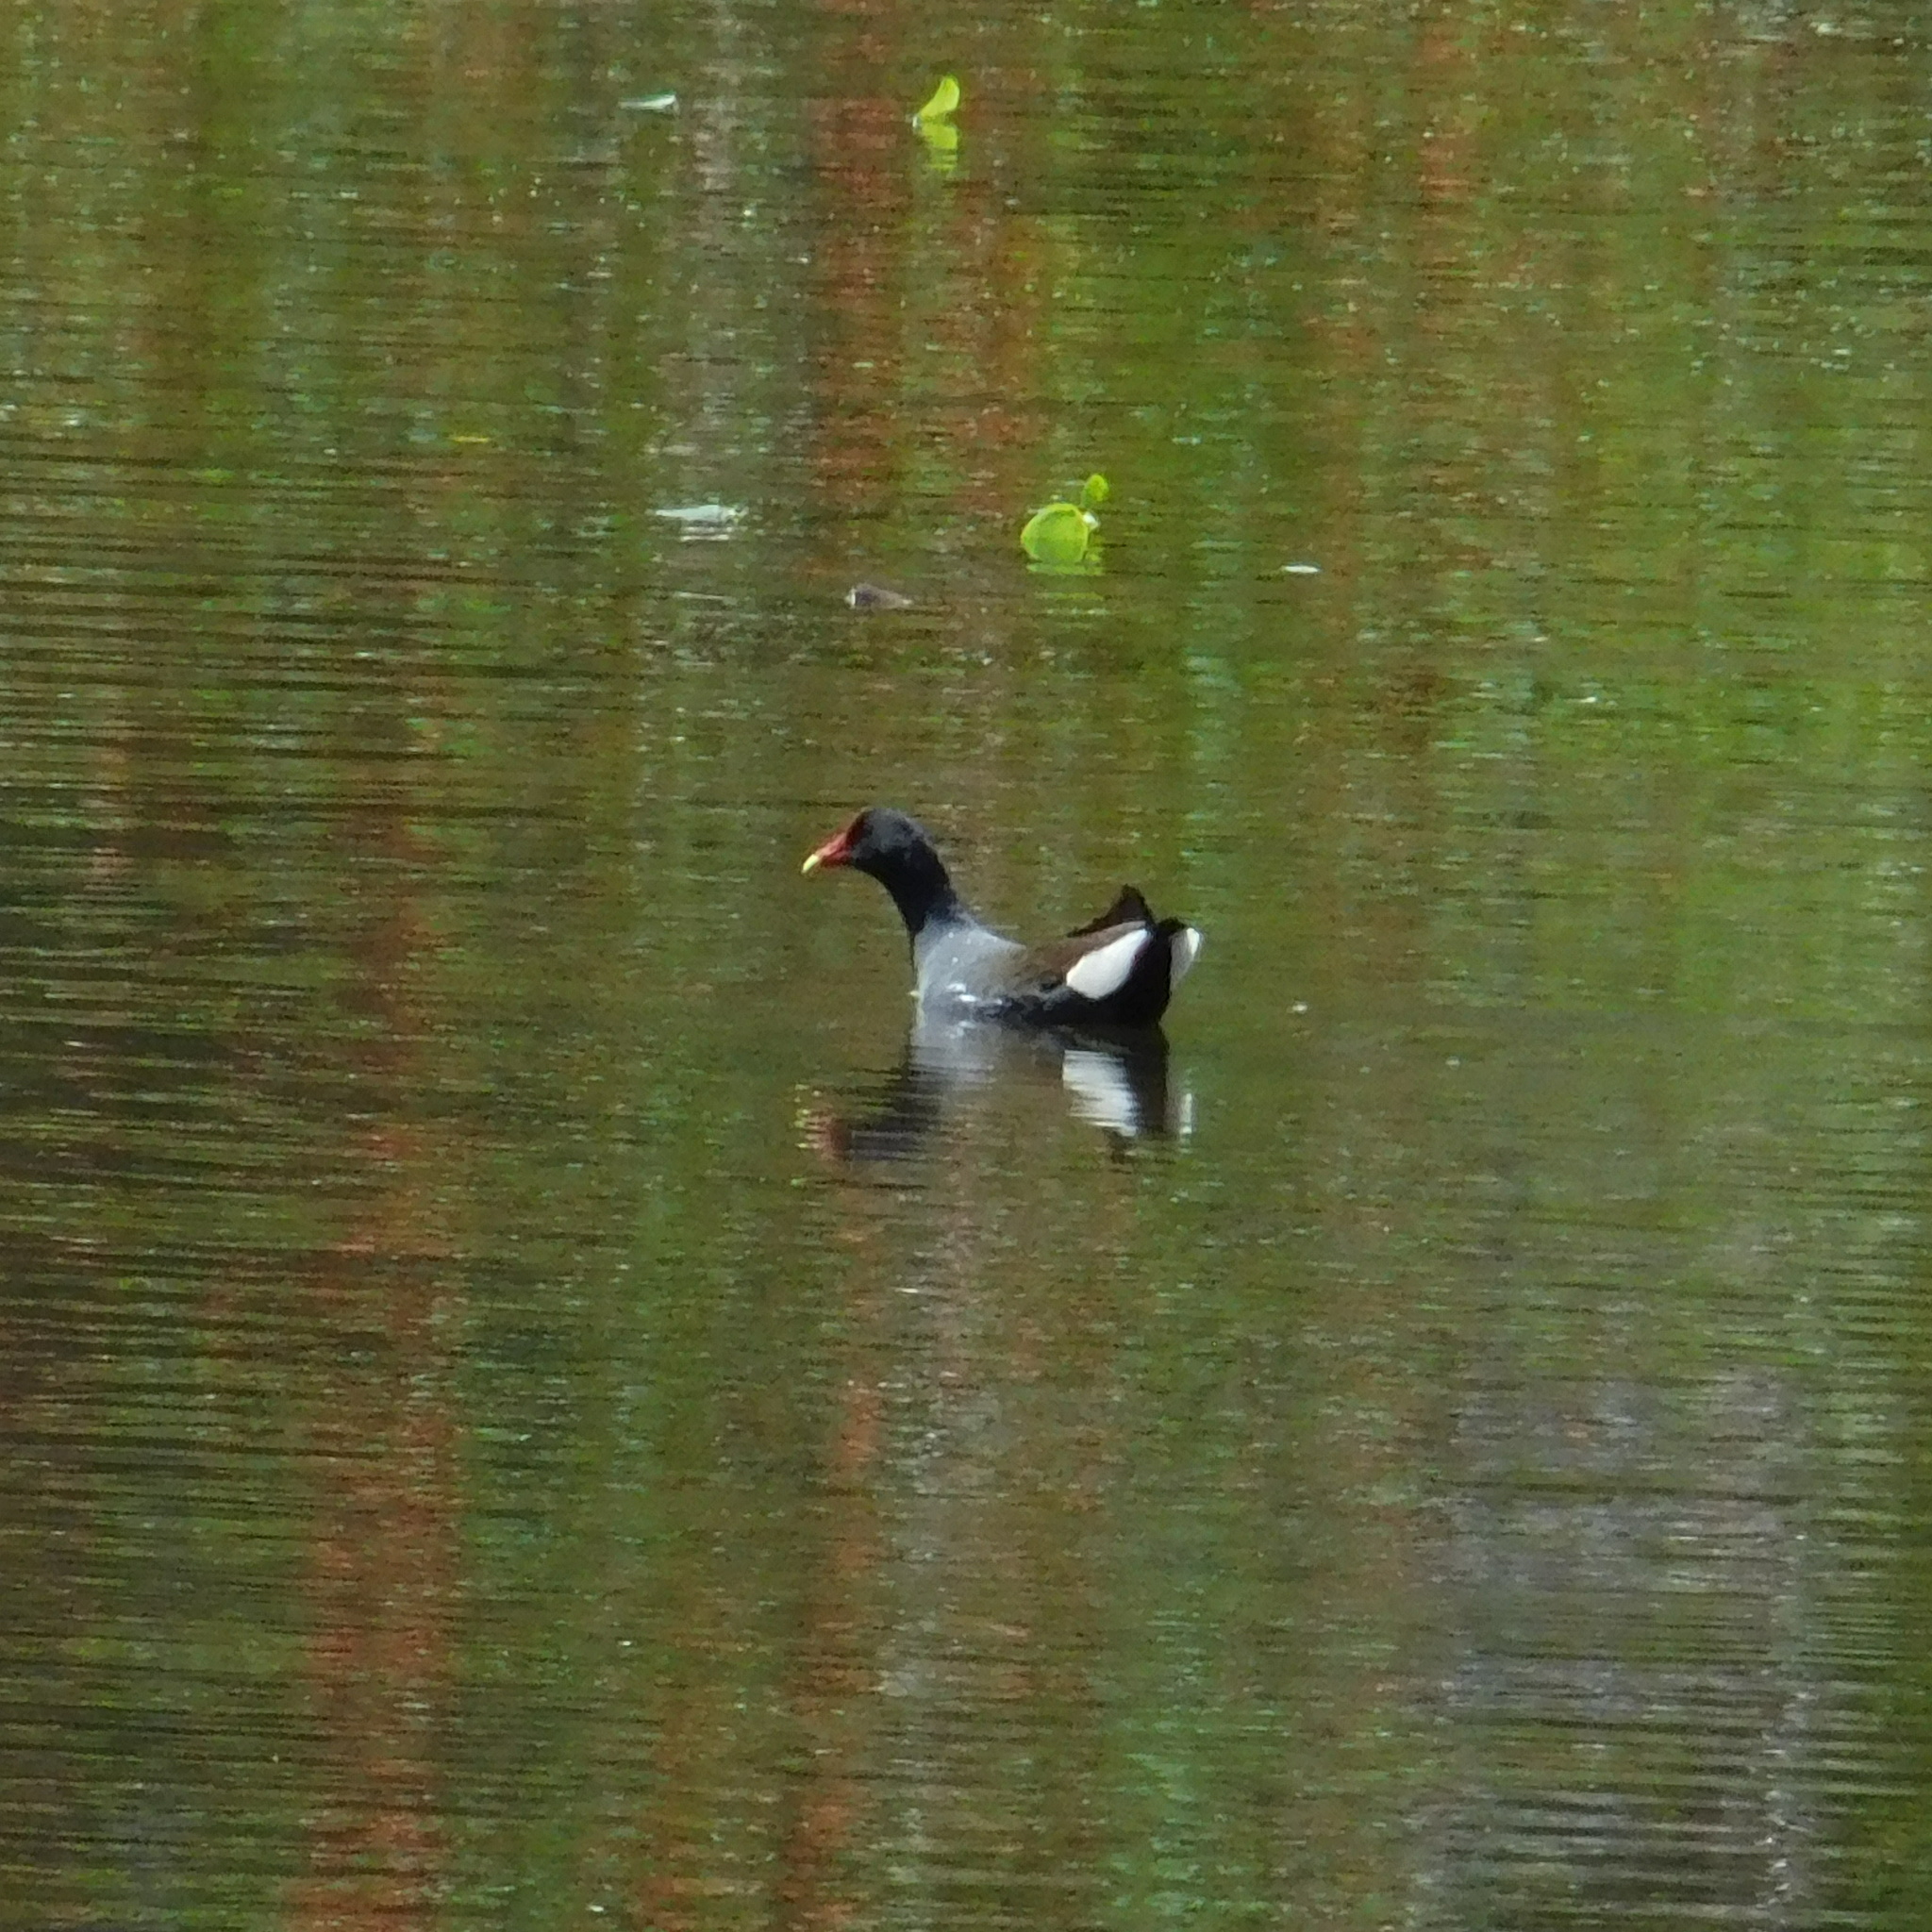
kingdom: Animalia
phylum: Chordata
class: Aves
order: Gruiformes
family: Rallidae
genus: Gallinula
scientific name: Gallinula chloropus
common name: Common moorhen
